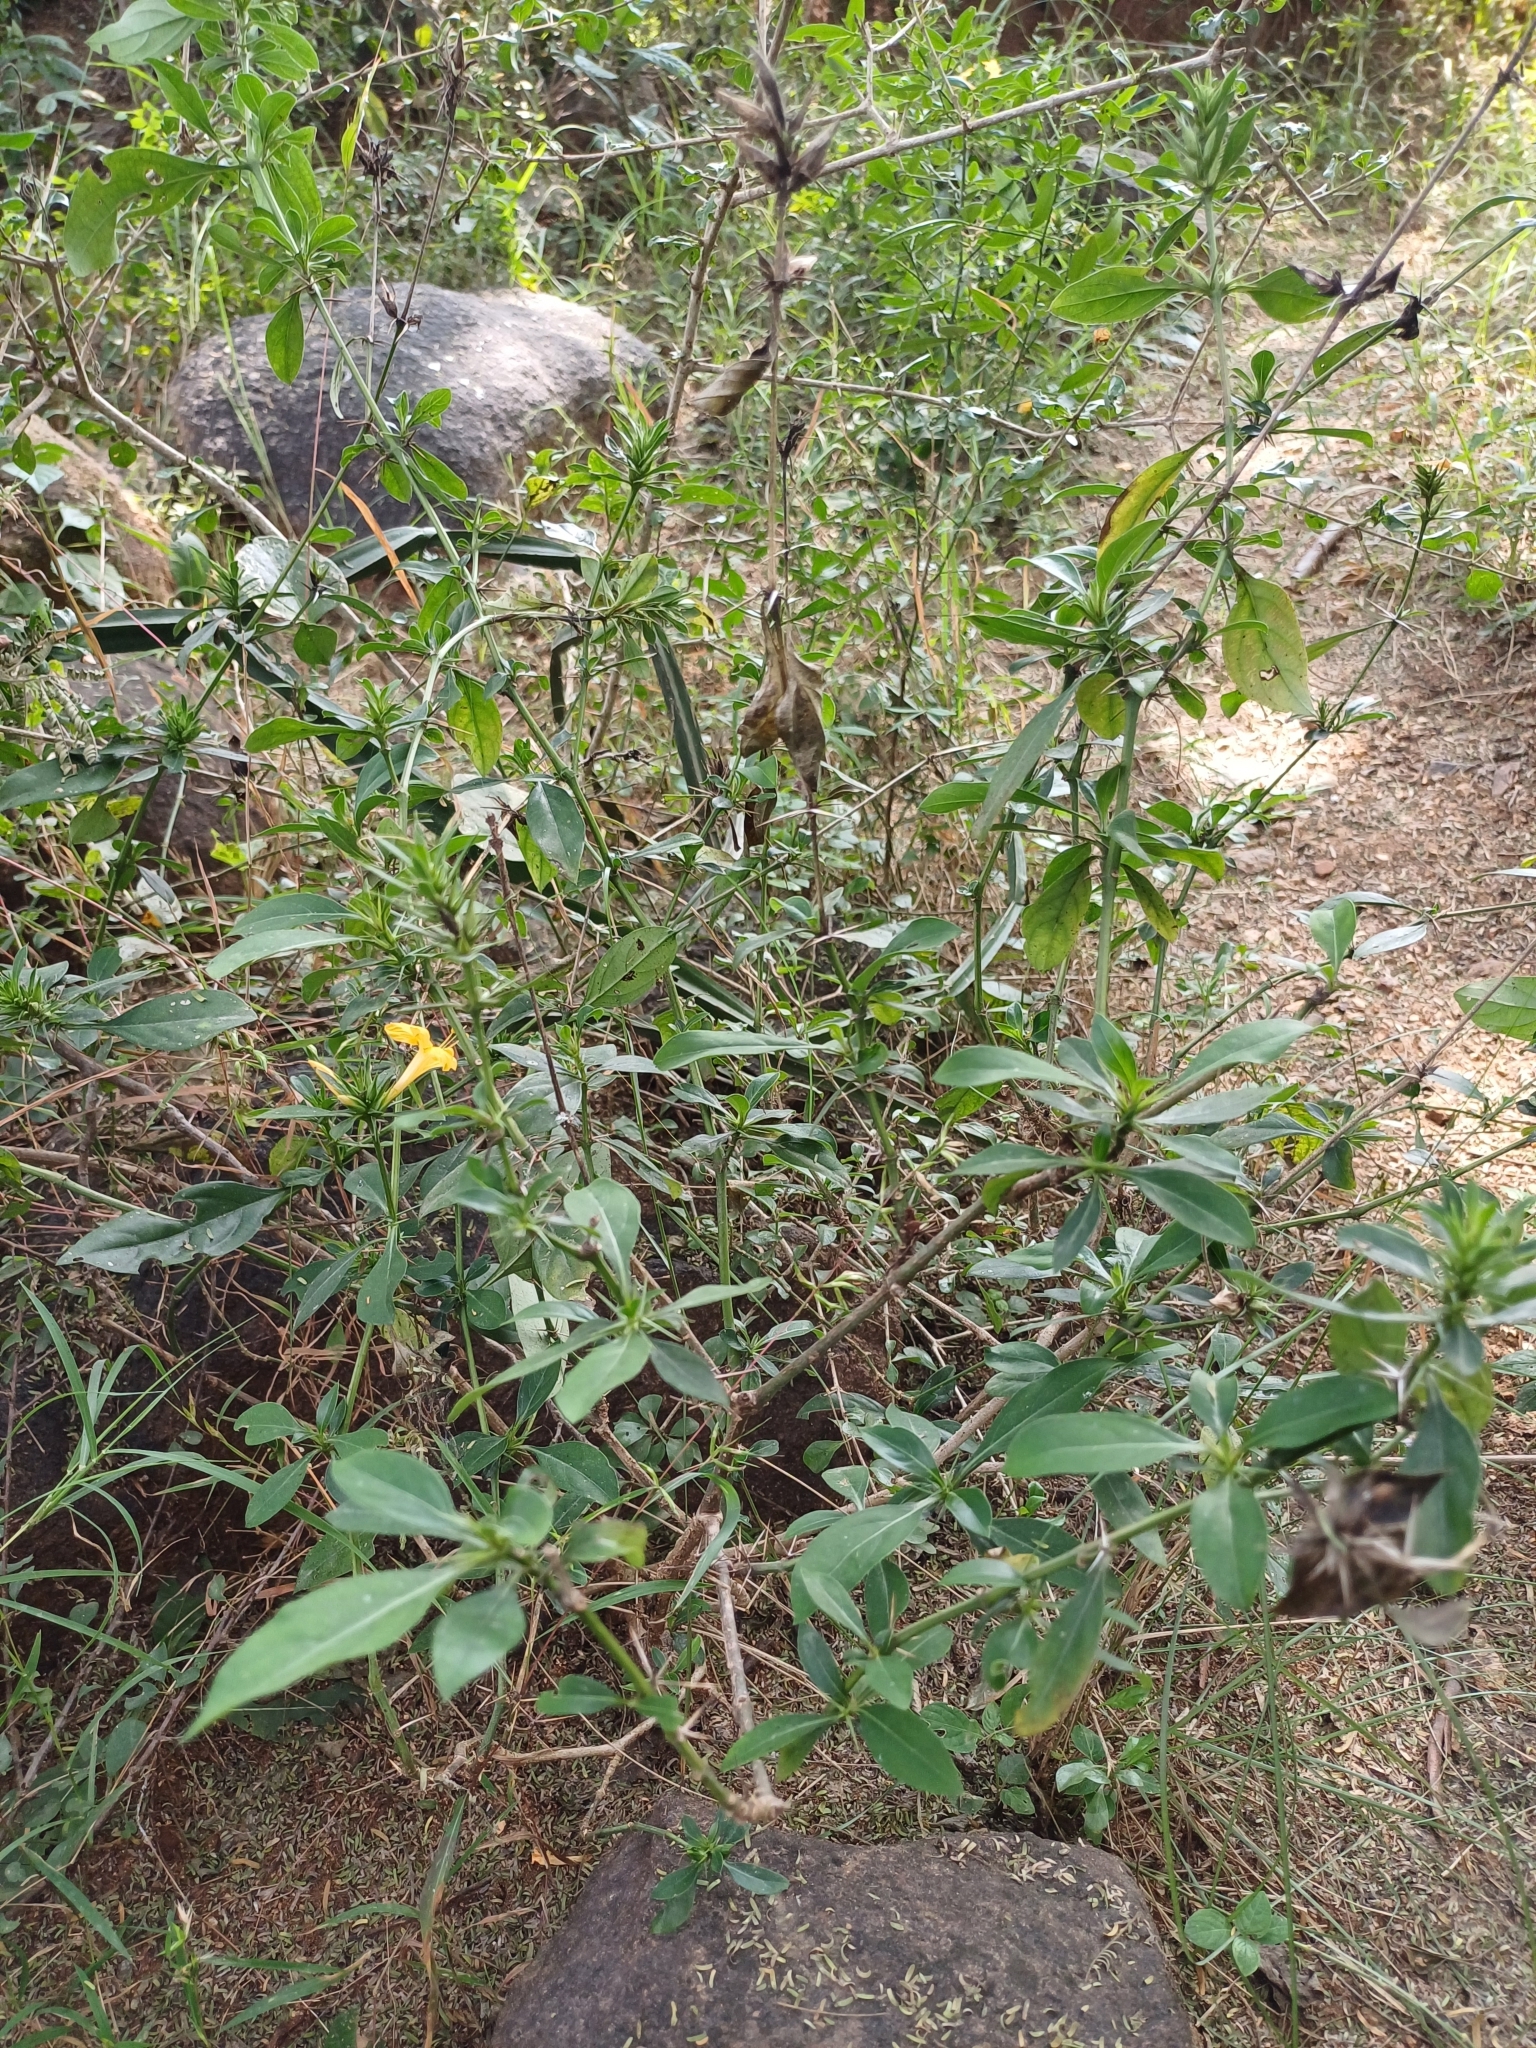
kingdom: Plantae
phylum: Tracheophyta
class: Magnoliopsida
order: Lamiales
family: Acanthaceae
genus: Barleria
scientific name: Barleria prionitis
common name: Barleria
